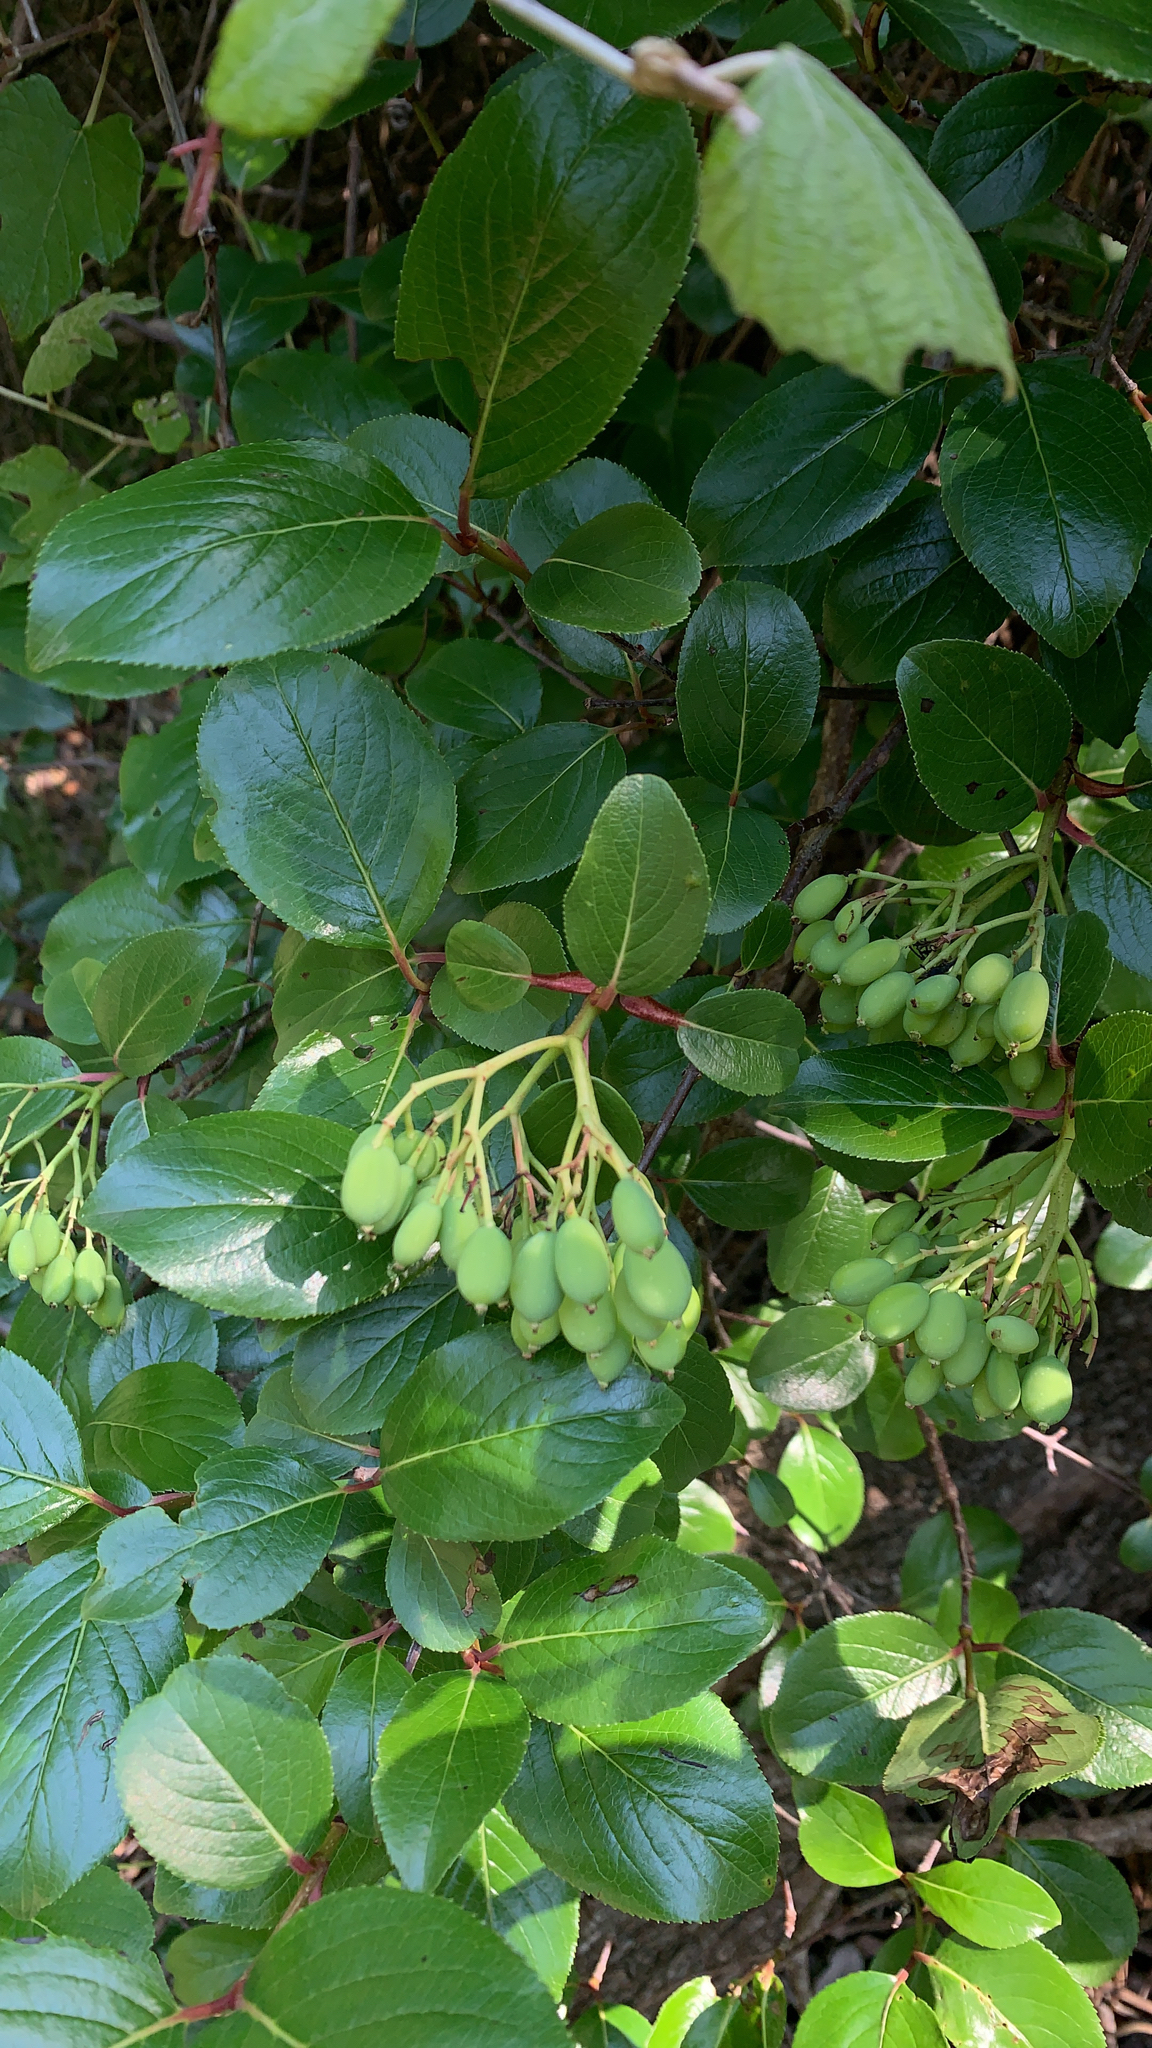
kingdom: Plantae
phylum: Tracheophyta
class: Magnoliopsida
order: Dipsacales
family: Viburnaceae
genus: Viburnum
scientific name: Viburnum rufidulum
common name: Blue haw
